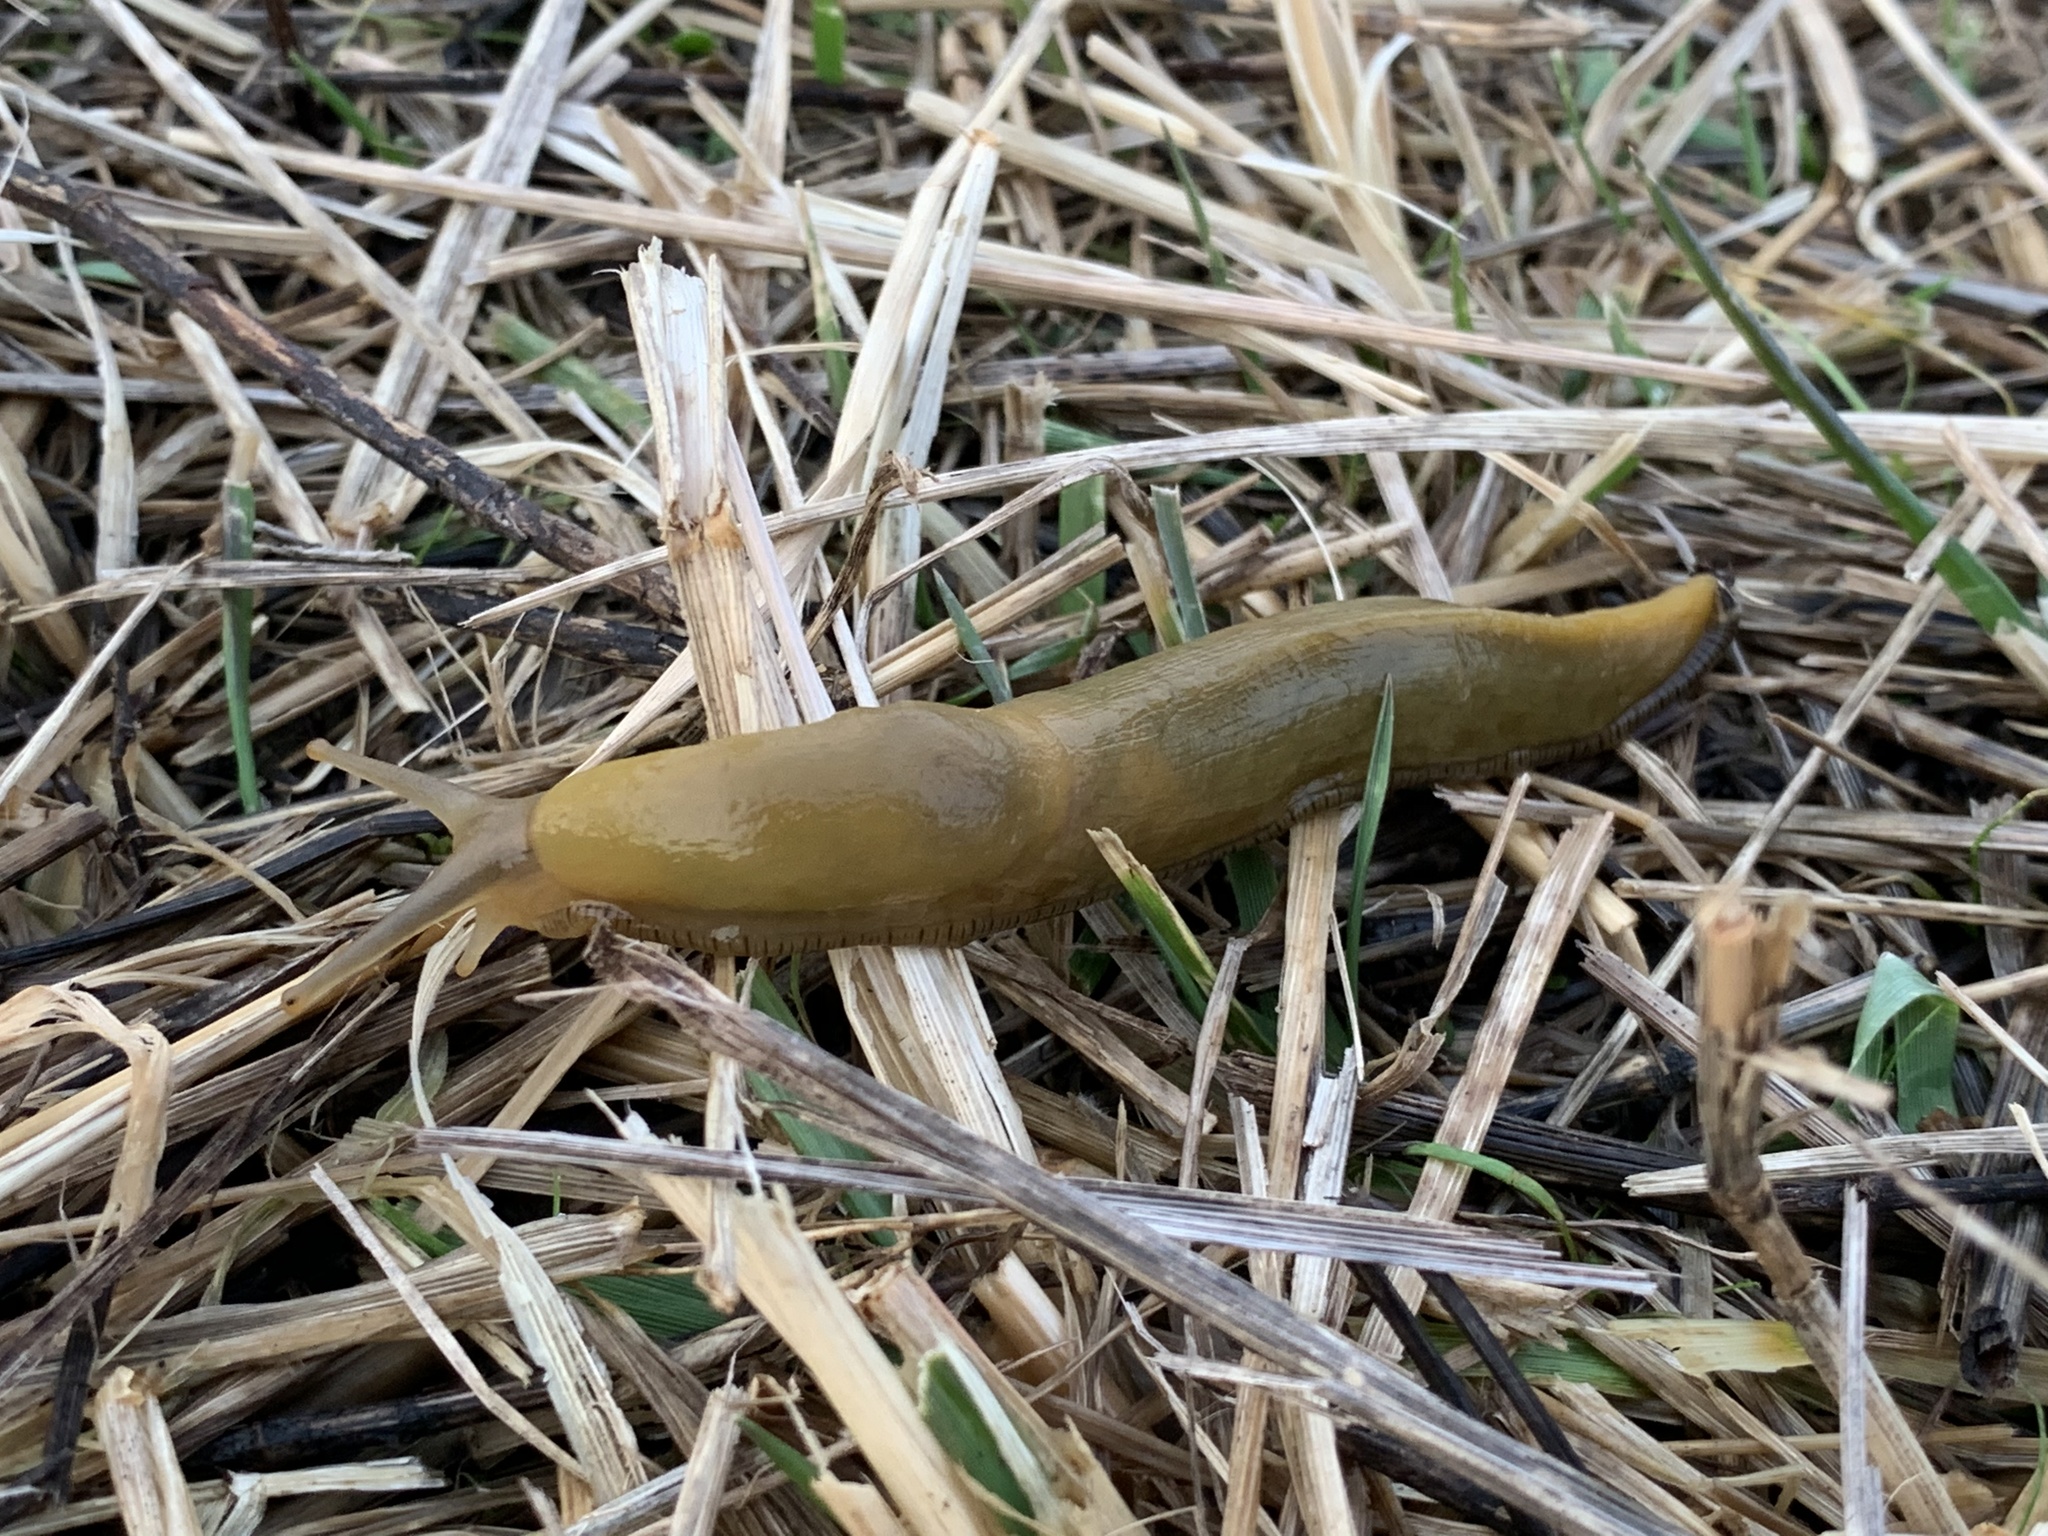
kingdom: Animalia
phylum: Mollusca
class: Gastropoda
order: Stylommatophora
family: Ariolimacidae
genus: Ariolimax
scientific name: Ariolimax columbianus
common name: Pacific banana slug
